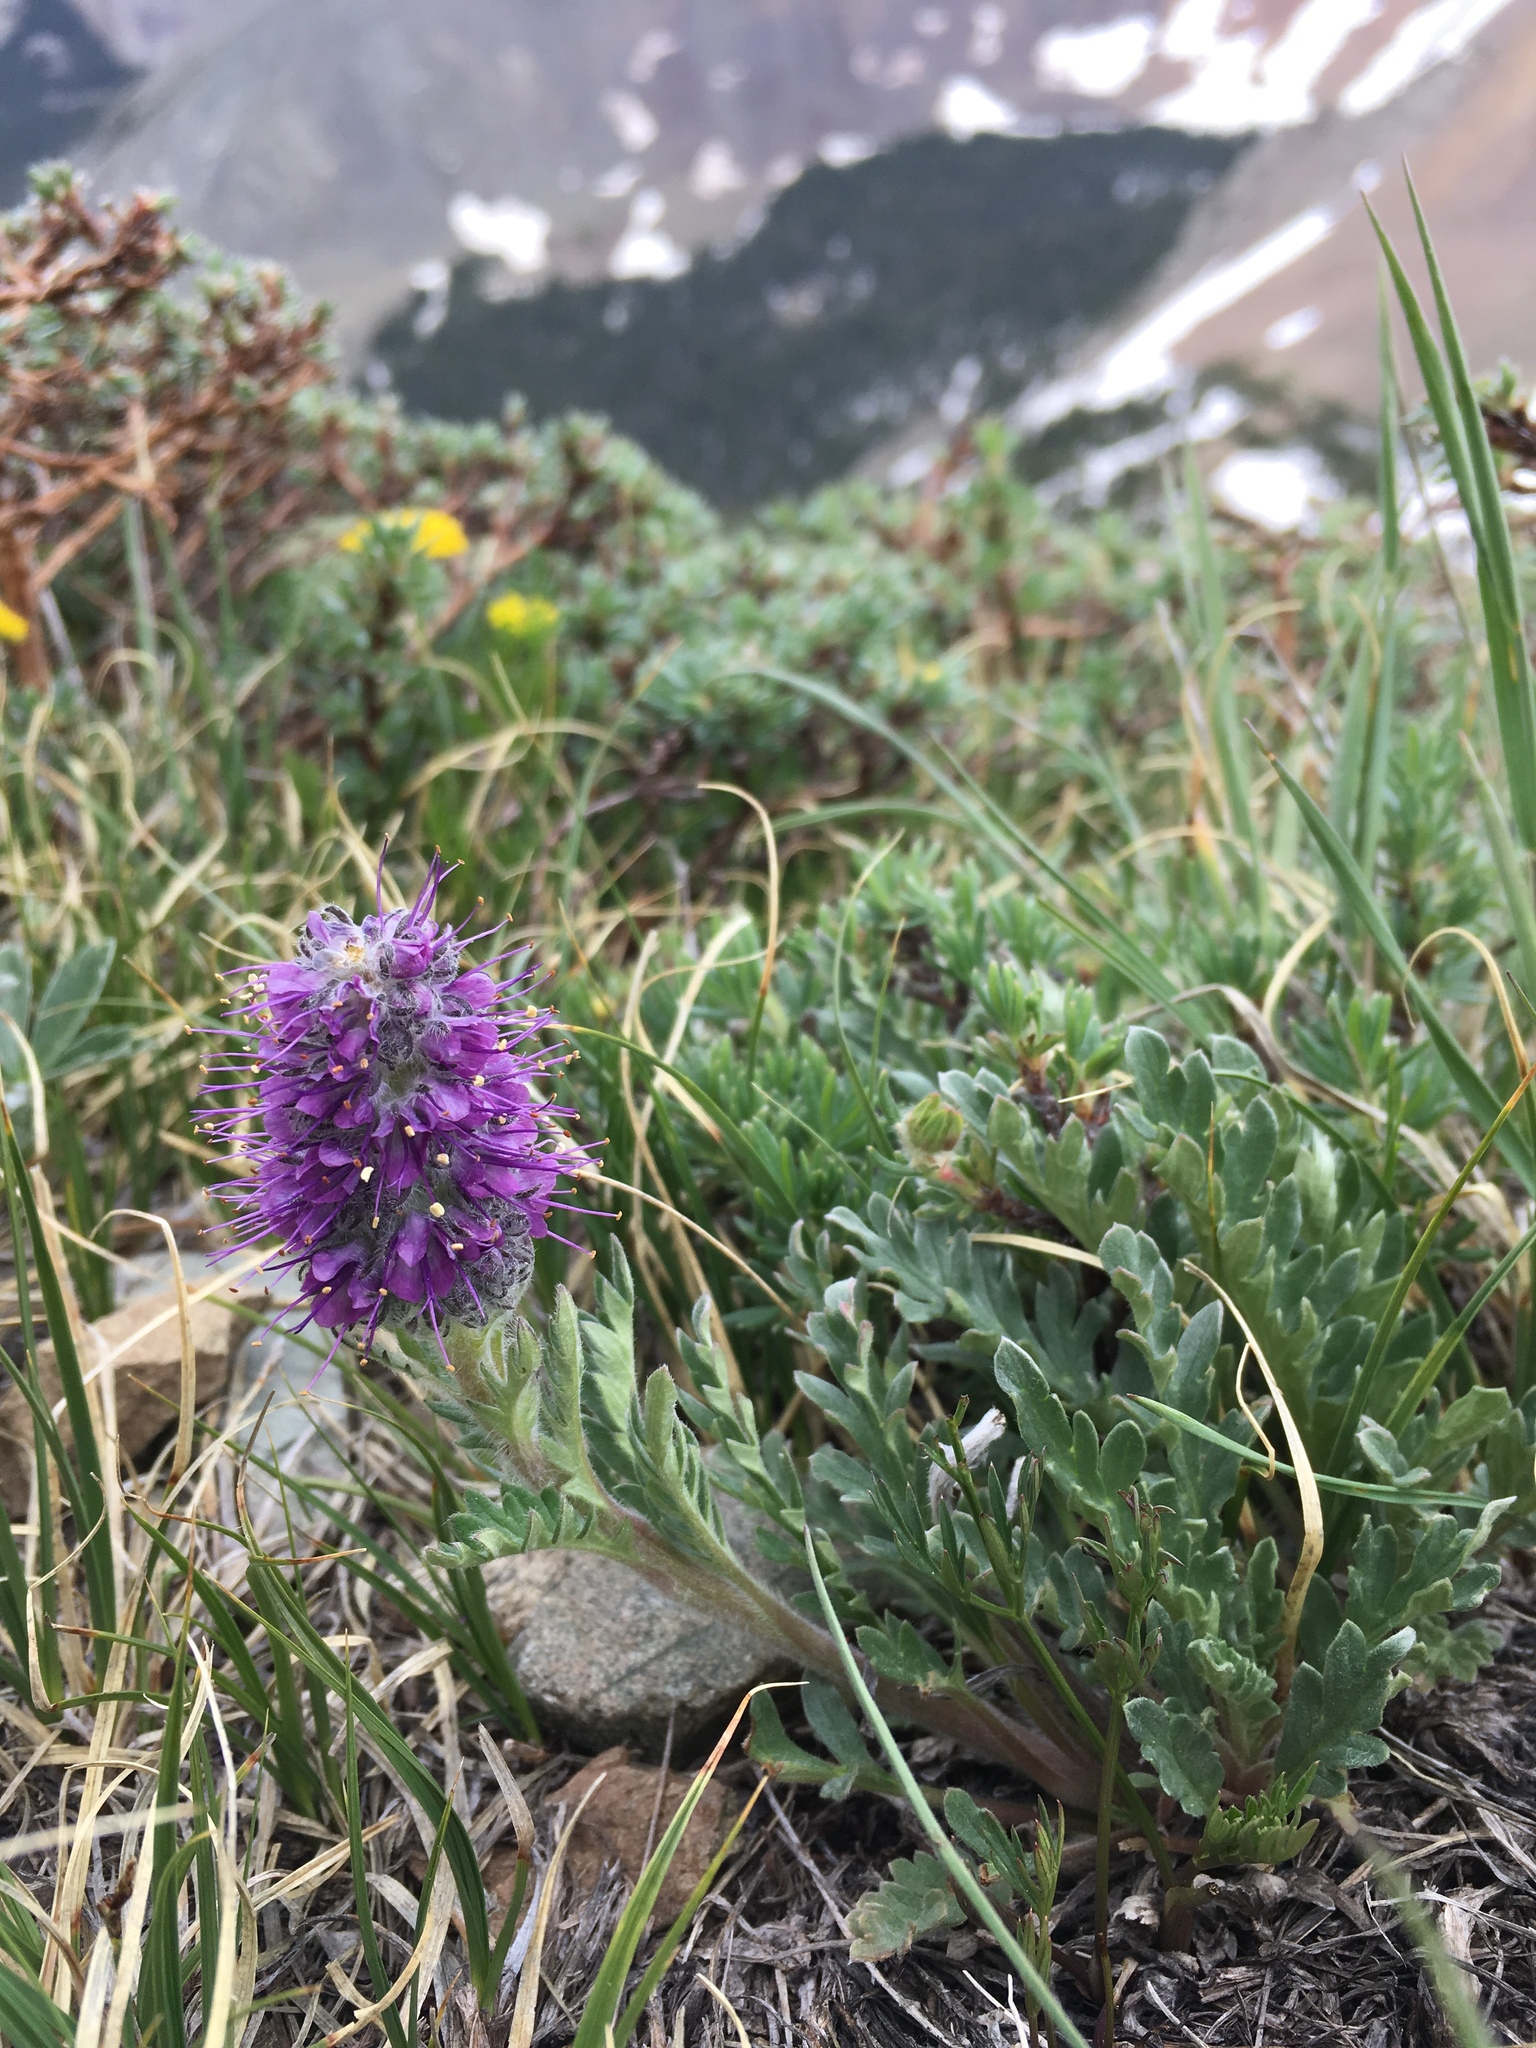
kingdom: Plantae
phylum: Tracheophyta
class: Magnoliopsida
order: Boraginales
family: Hydrophyllaceae
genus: Phacelia
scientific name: Phacelia sericea
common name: Silky phacelia
